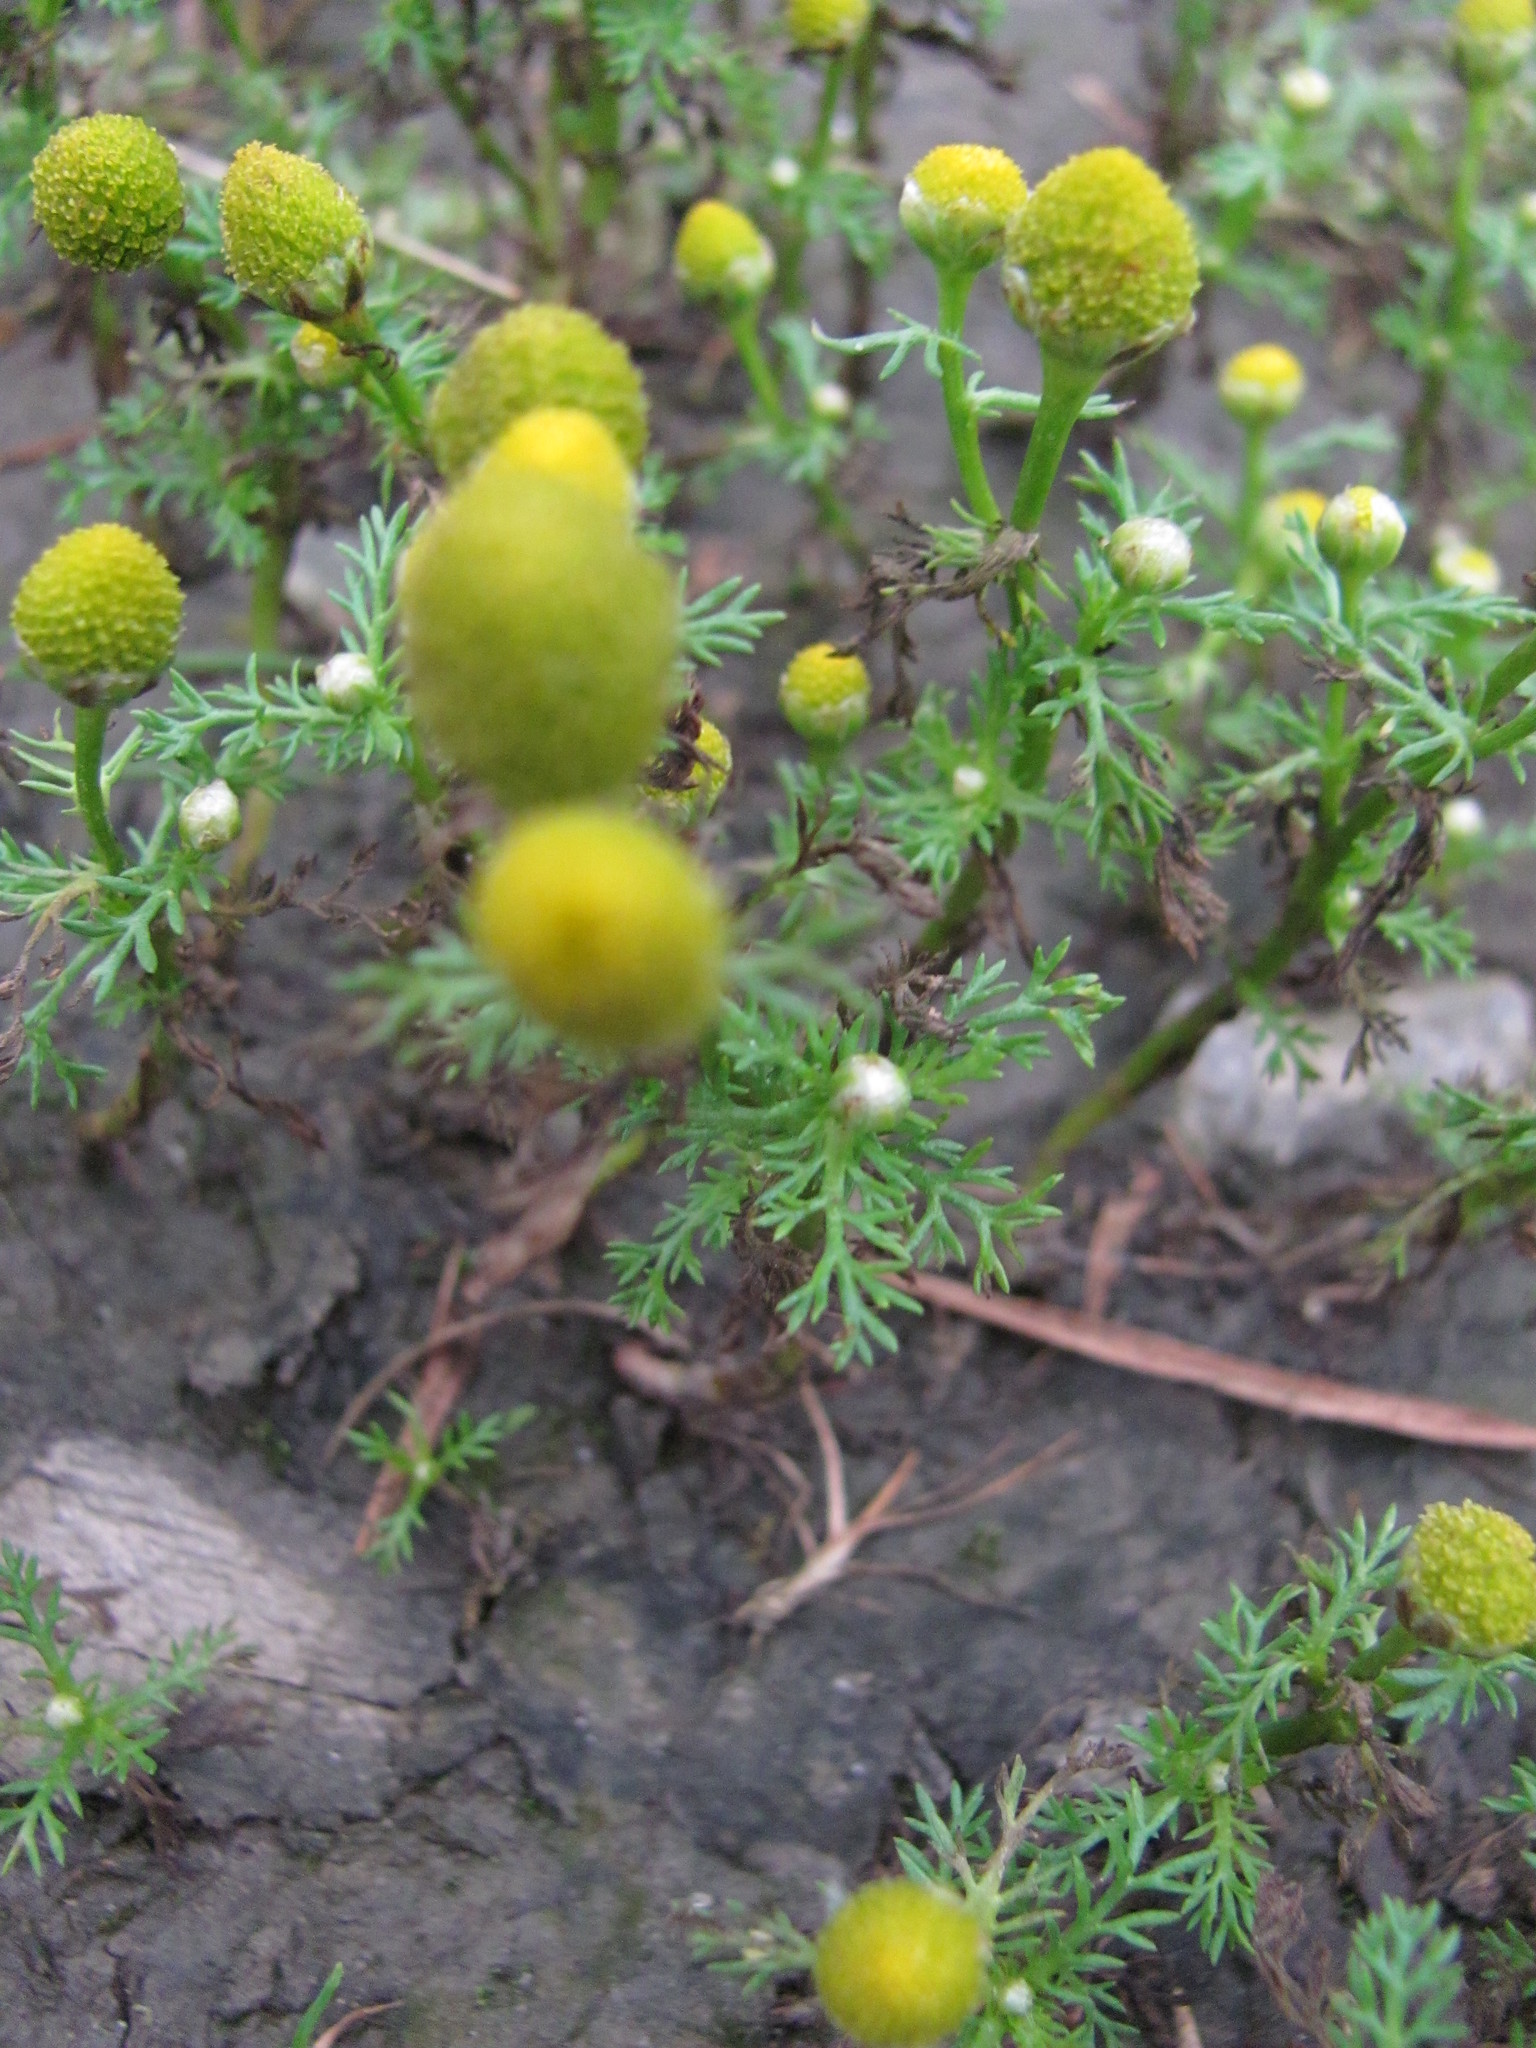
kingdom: Plantae
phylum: Tracheophyta
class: Magnoliopsida
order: Asterales
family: Asteraceae
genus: Matricaria
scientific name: Matricaria discoidea
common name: Disc mayweed
